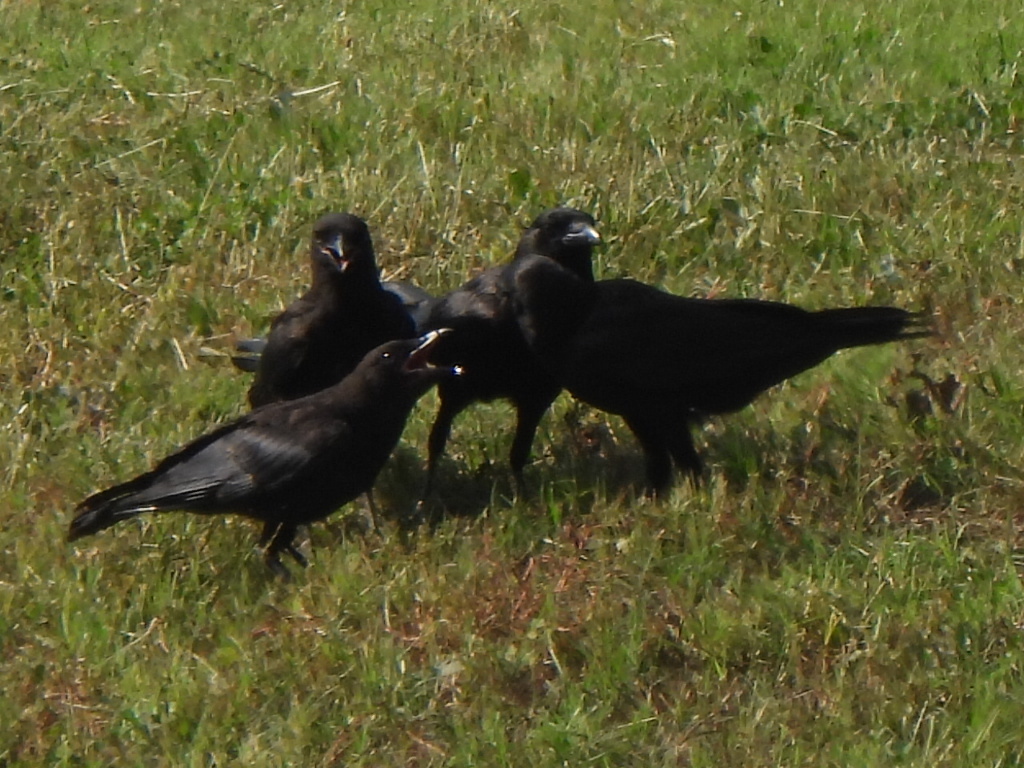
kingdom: Animalia
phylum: Chordata
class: Aves
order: Passeriformes
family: Corvidae
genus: Corvus
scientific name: Corvus brachyrhynchos
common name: American crow
